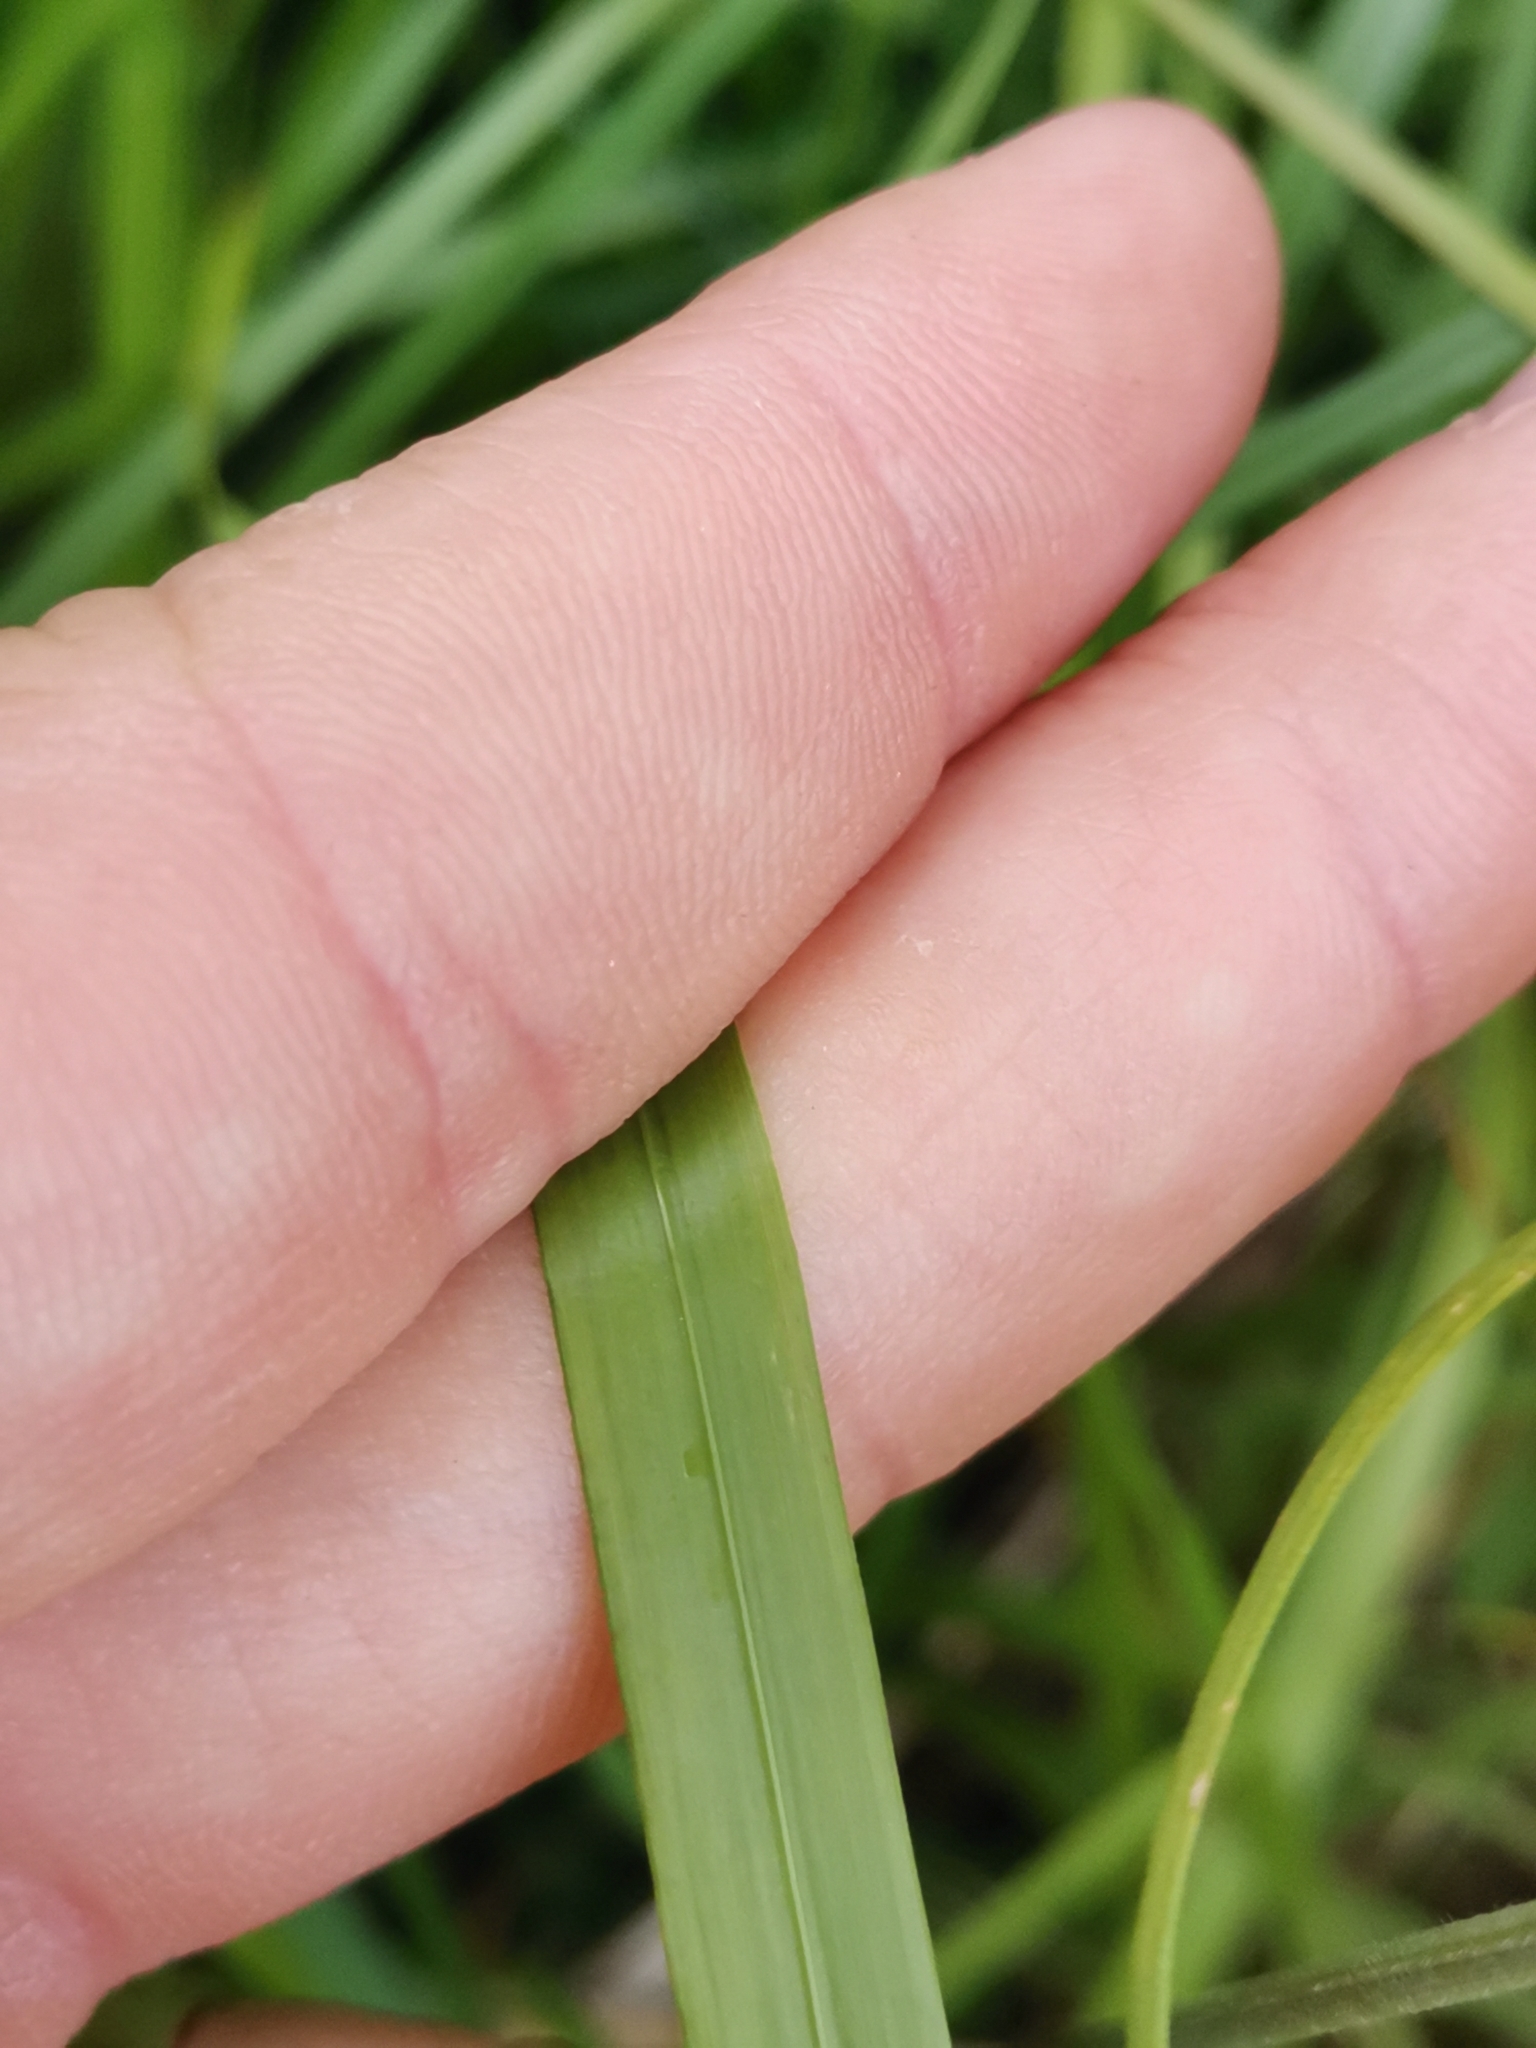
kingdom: Plantae
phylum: Tracheophyta
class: Liliopsida
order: Poales
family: Poaceae
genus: Brachypodium
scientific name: Brachypodium pinnatum
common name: Tor grass
